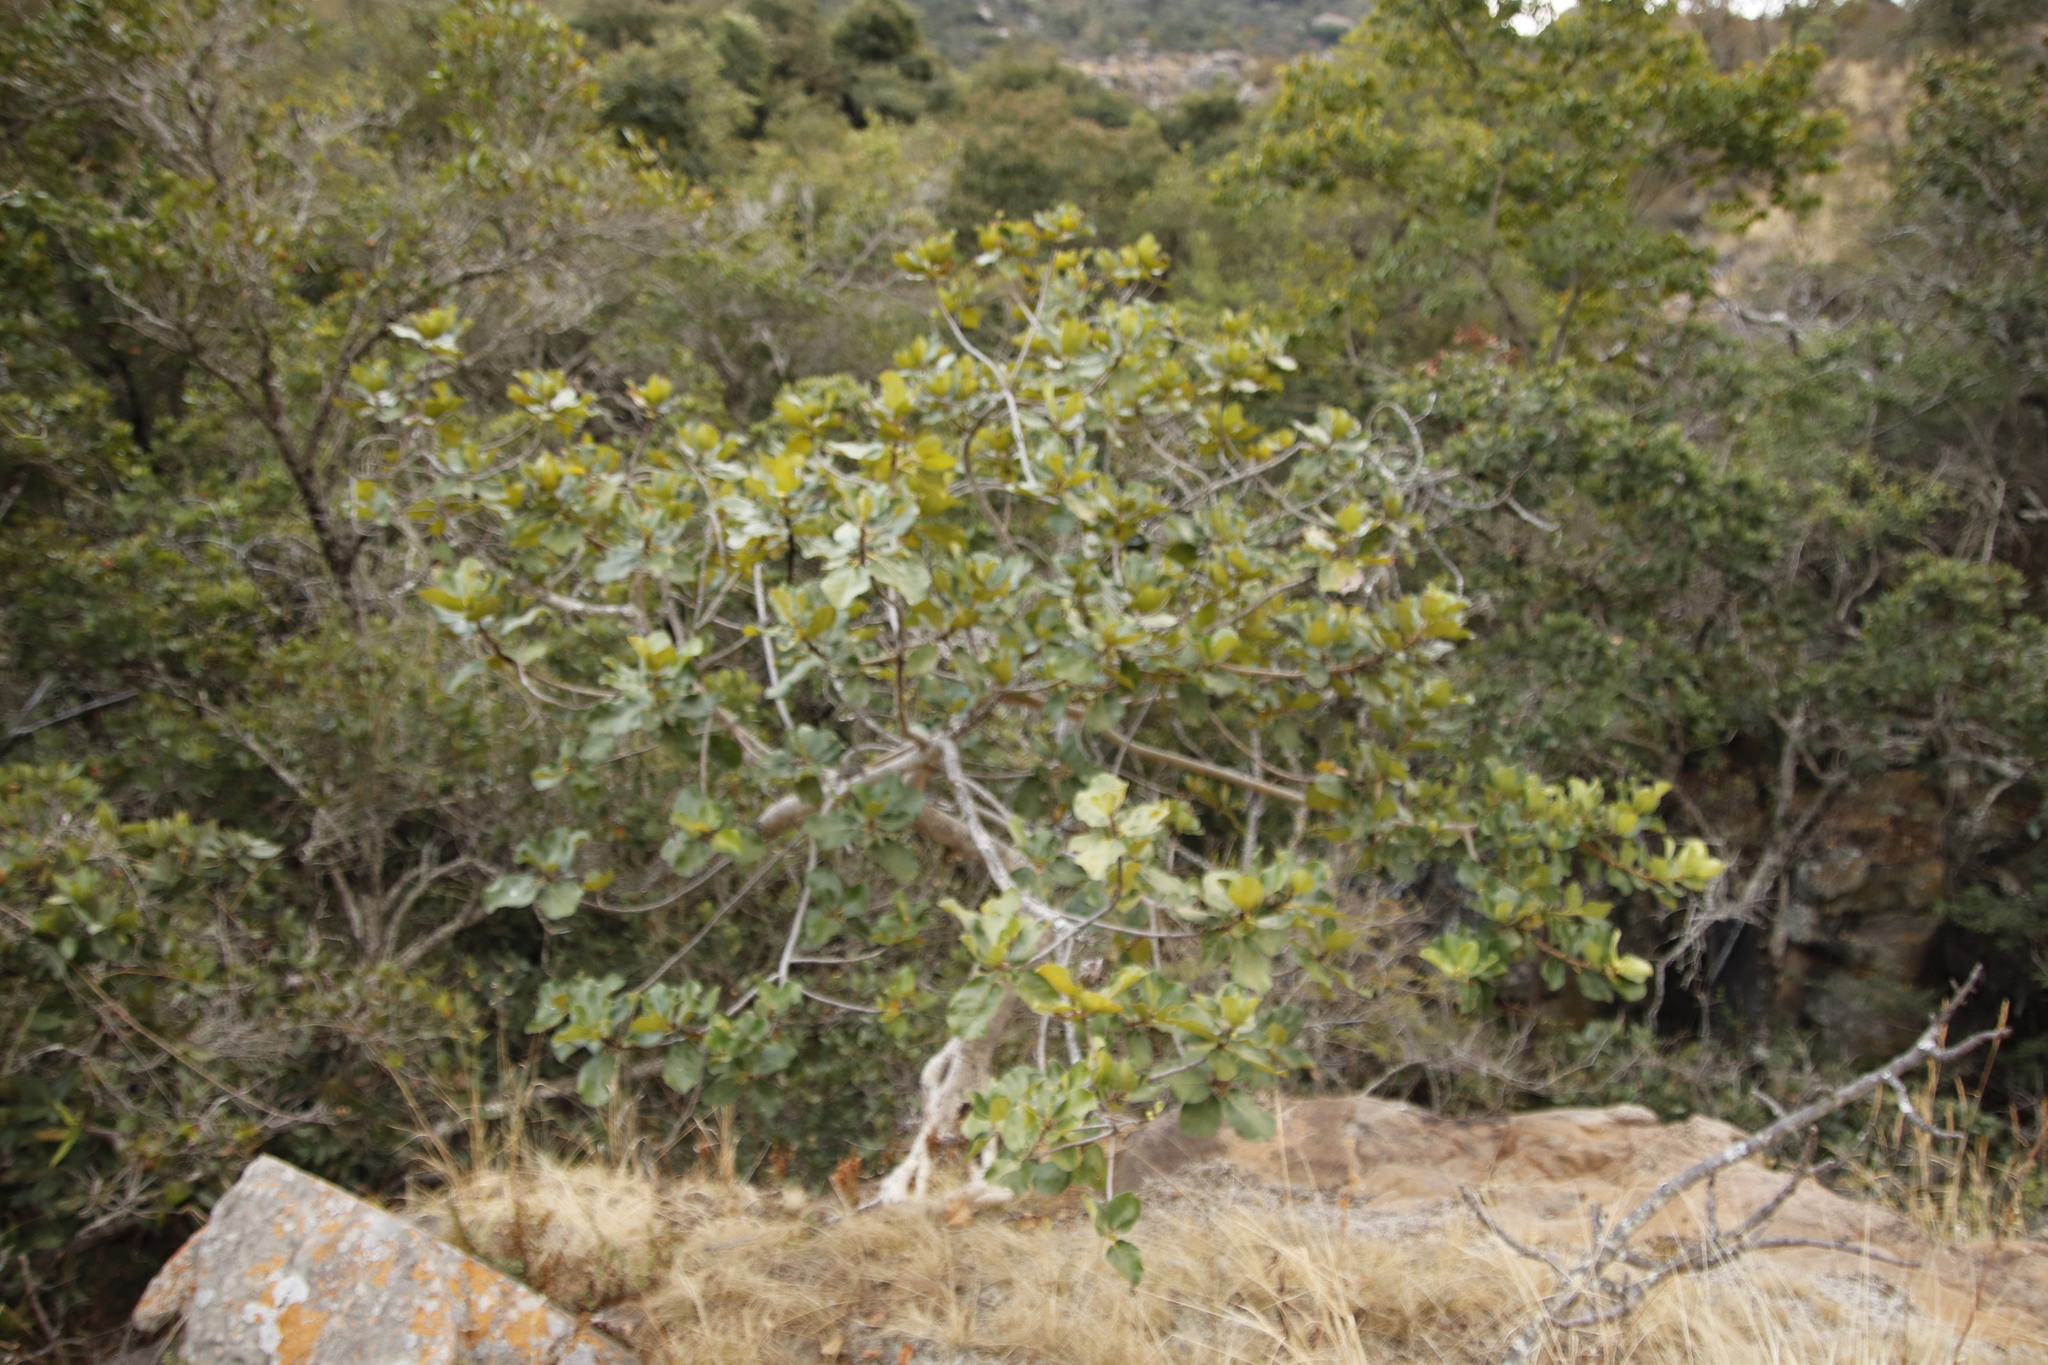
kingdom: Plantae
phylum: Tracheophyta
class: Magnoliopsida
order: Rosales
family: Moraceae
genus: Ficus
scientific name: Ficus abutilifolia
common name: Large-leaved rock fig
